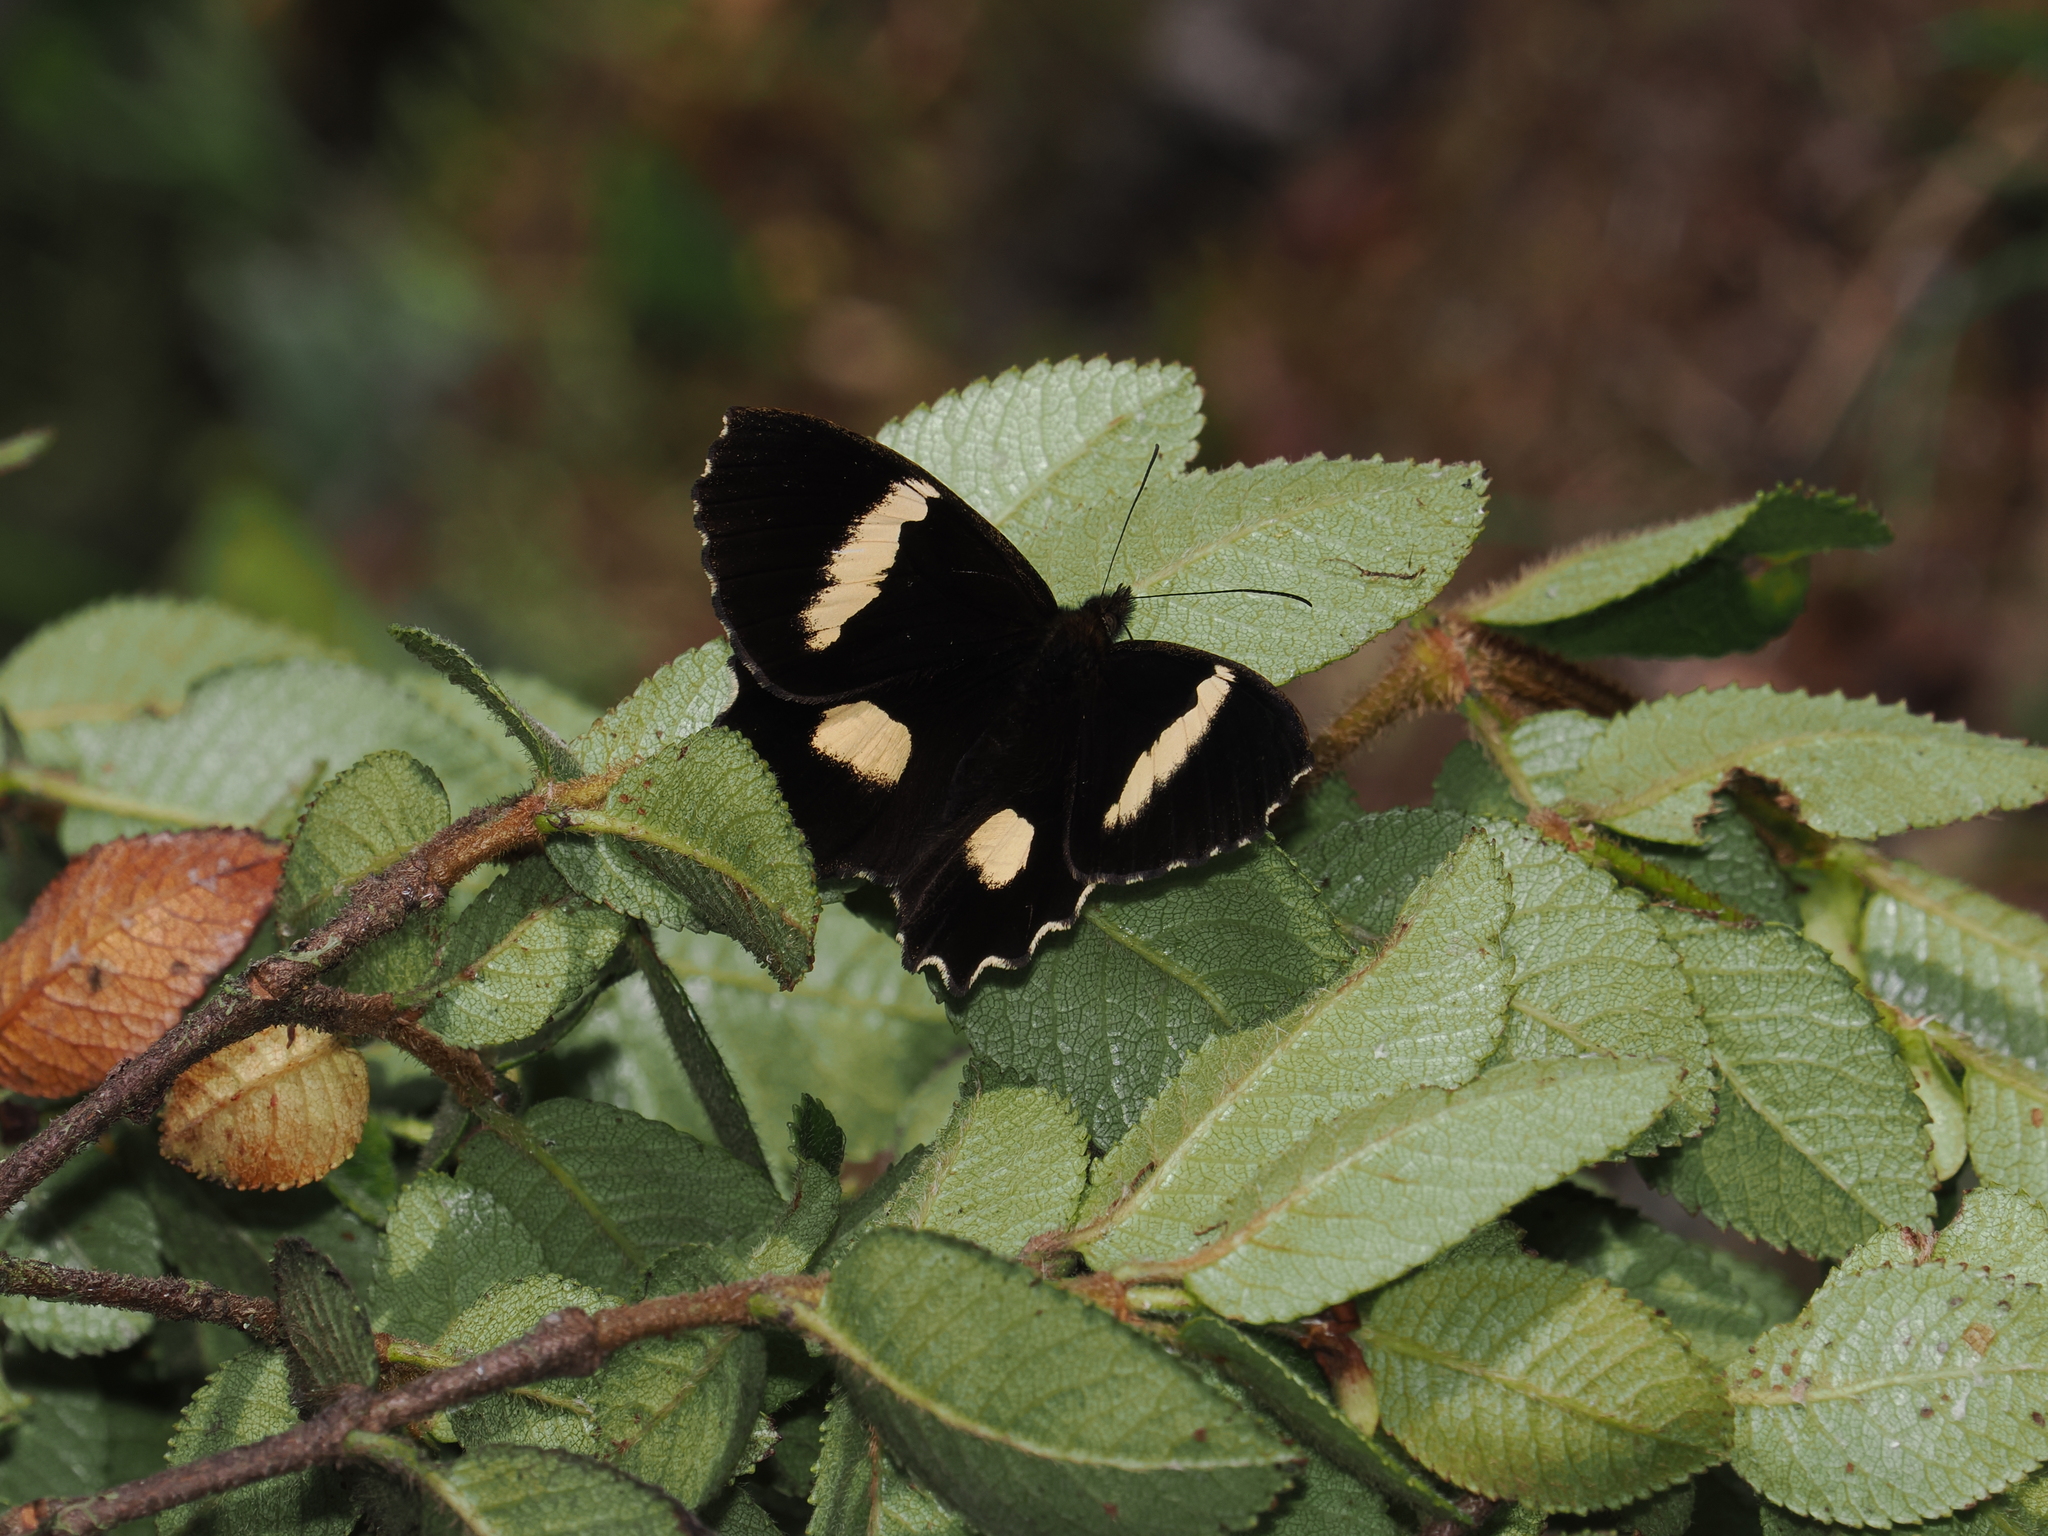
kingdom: Animalia
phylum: Arthropoda
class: Insecta
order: Lepidoptera
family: Nymphalidae
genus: Pedaliodes
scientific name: Pedaliodes phaedra
